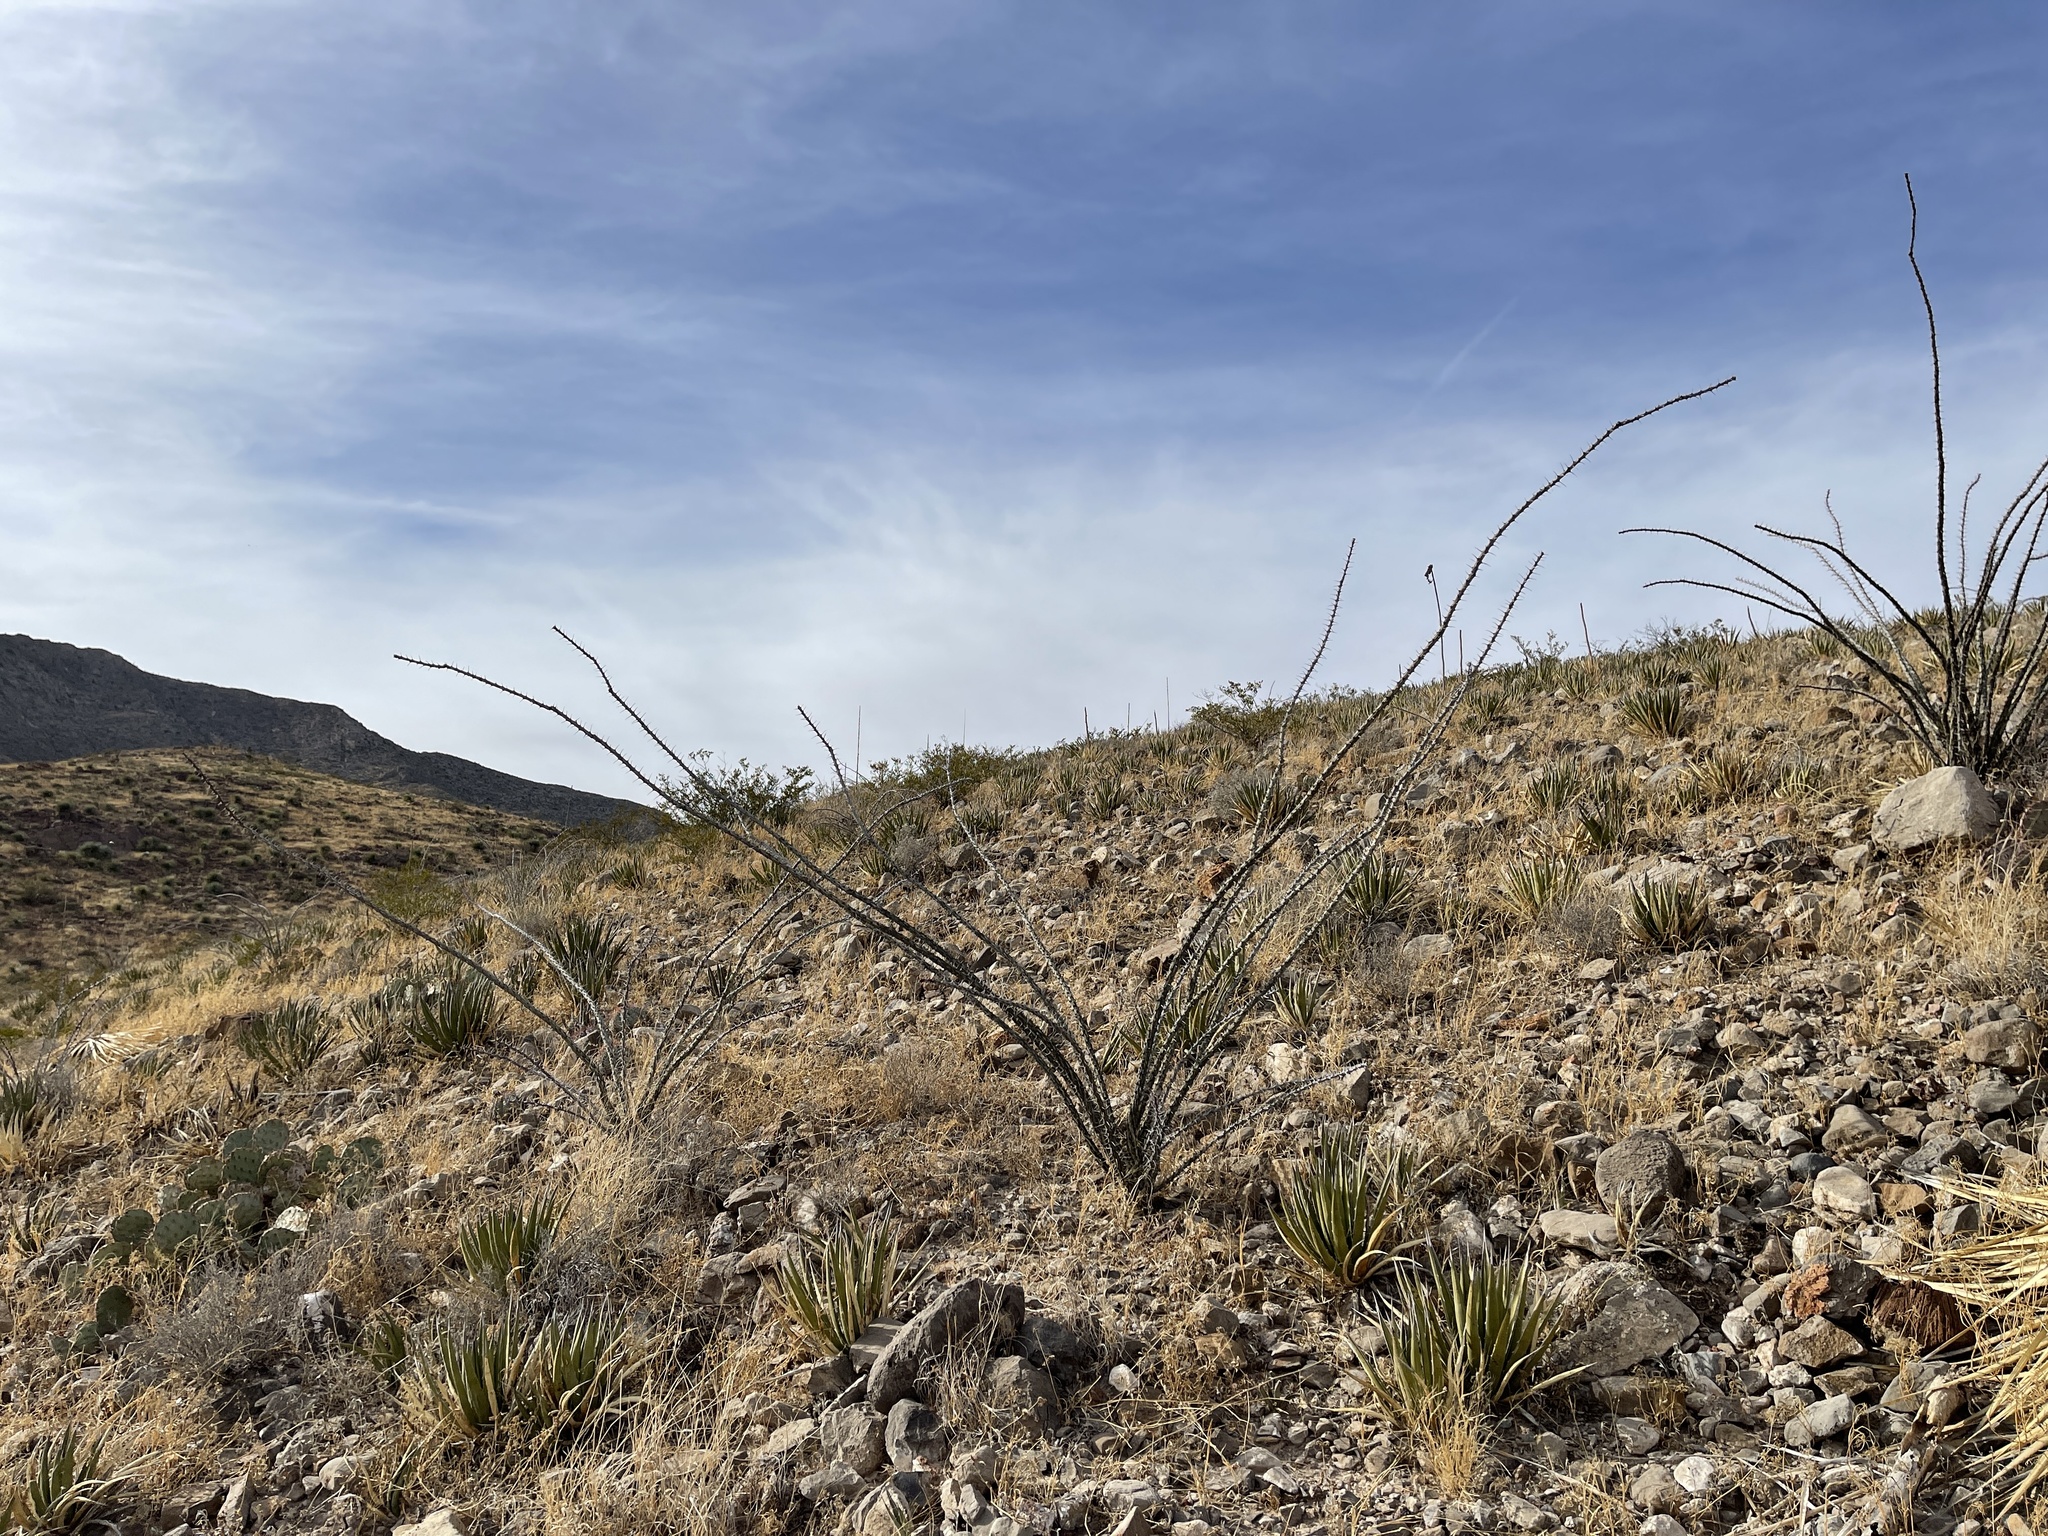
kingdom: Plantae
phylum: Tracheophyta
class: Magnoliopsida
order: Ericales
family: Fouquieriaceae
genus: Fouquieria
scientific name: Fouquieria splendens
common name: Vine-cactus
